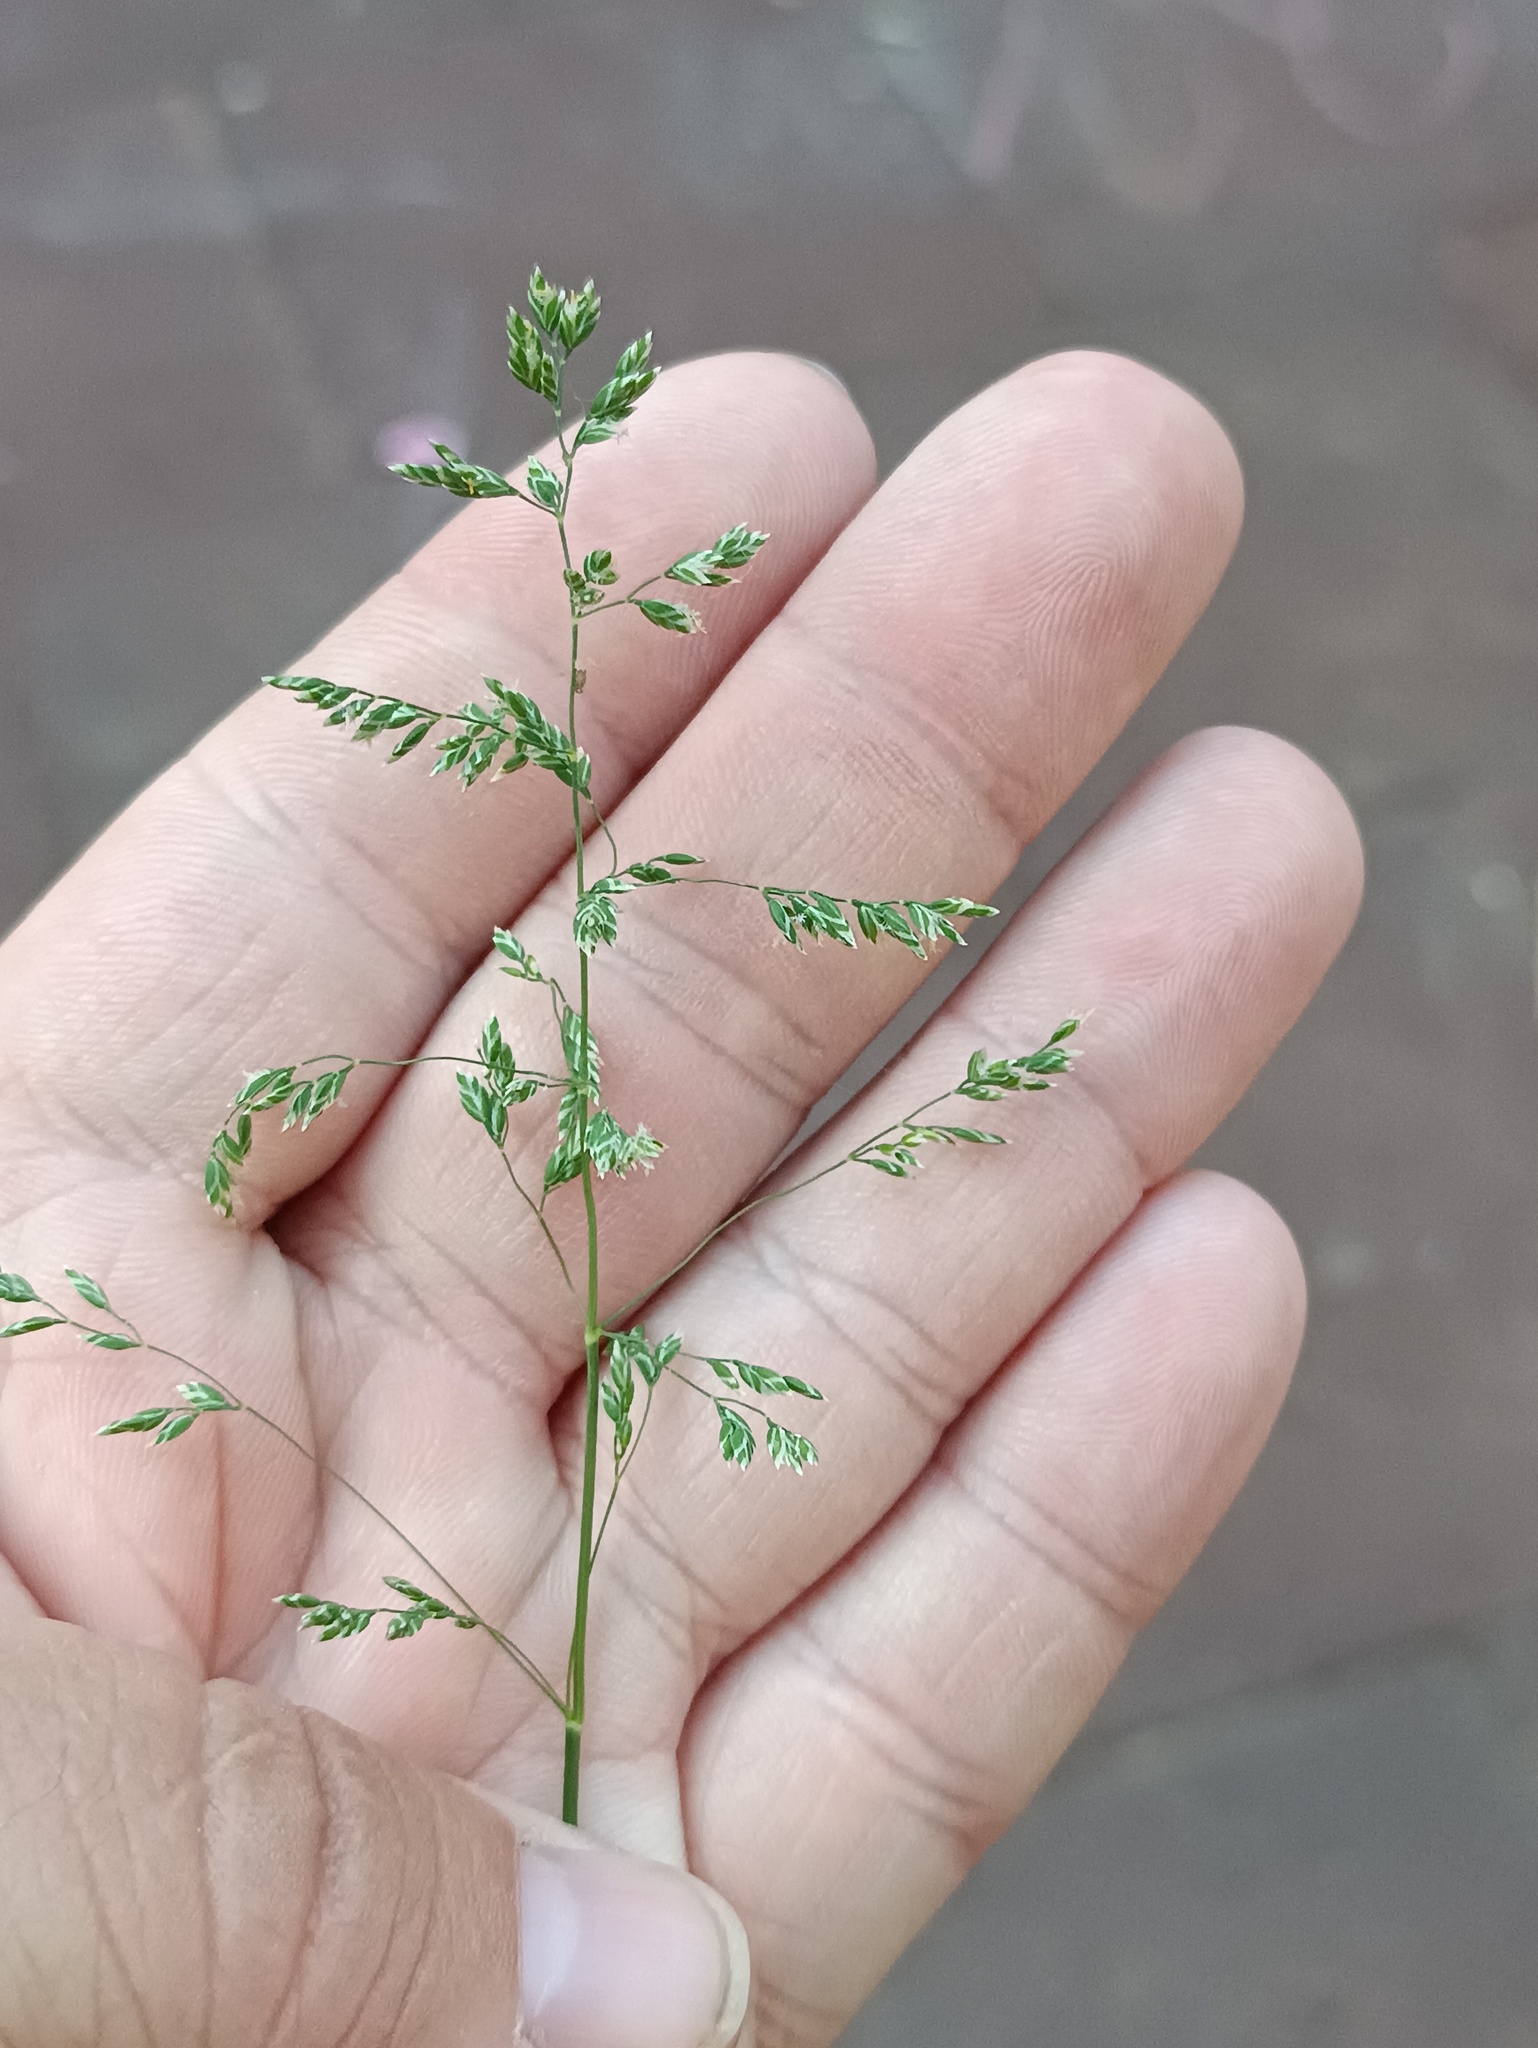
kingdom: Plantae
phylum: Tracheophyta
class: Liliopsida
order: Poales
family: Poaceae
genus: Poa
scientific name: Poa pratensis
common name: Kentucky bluegrass
